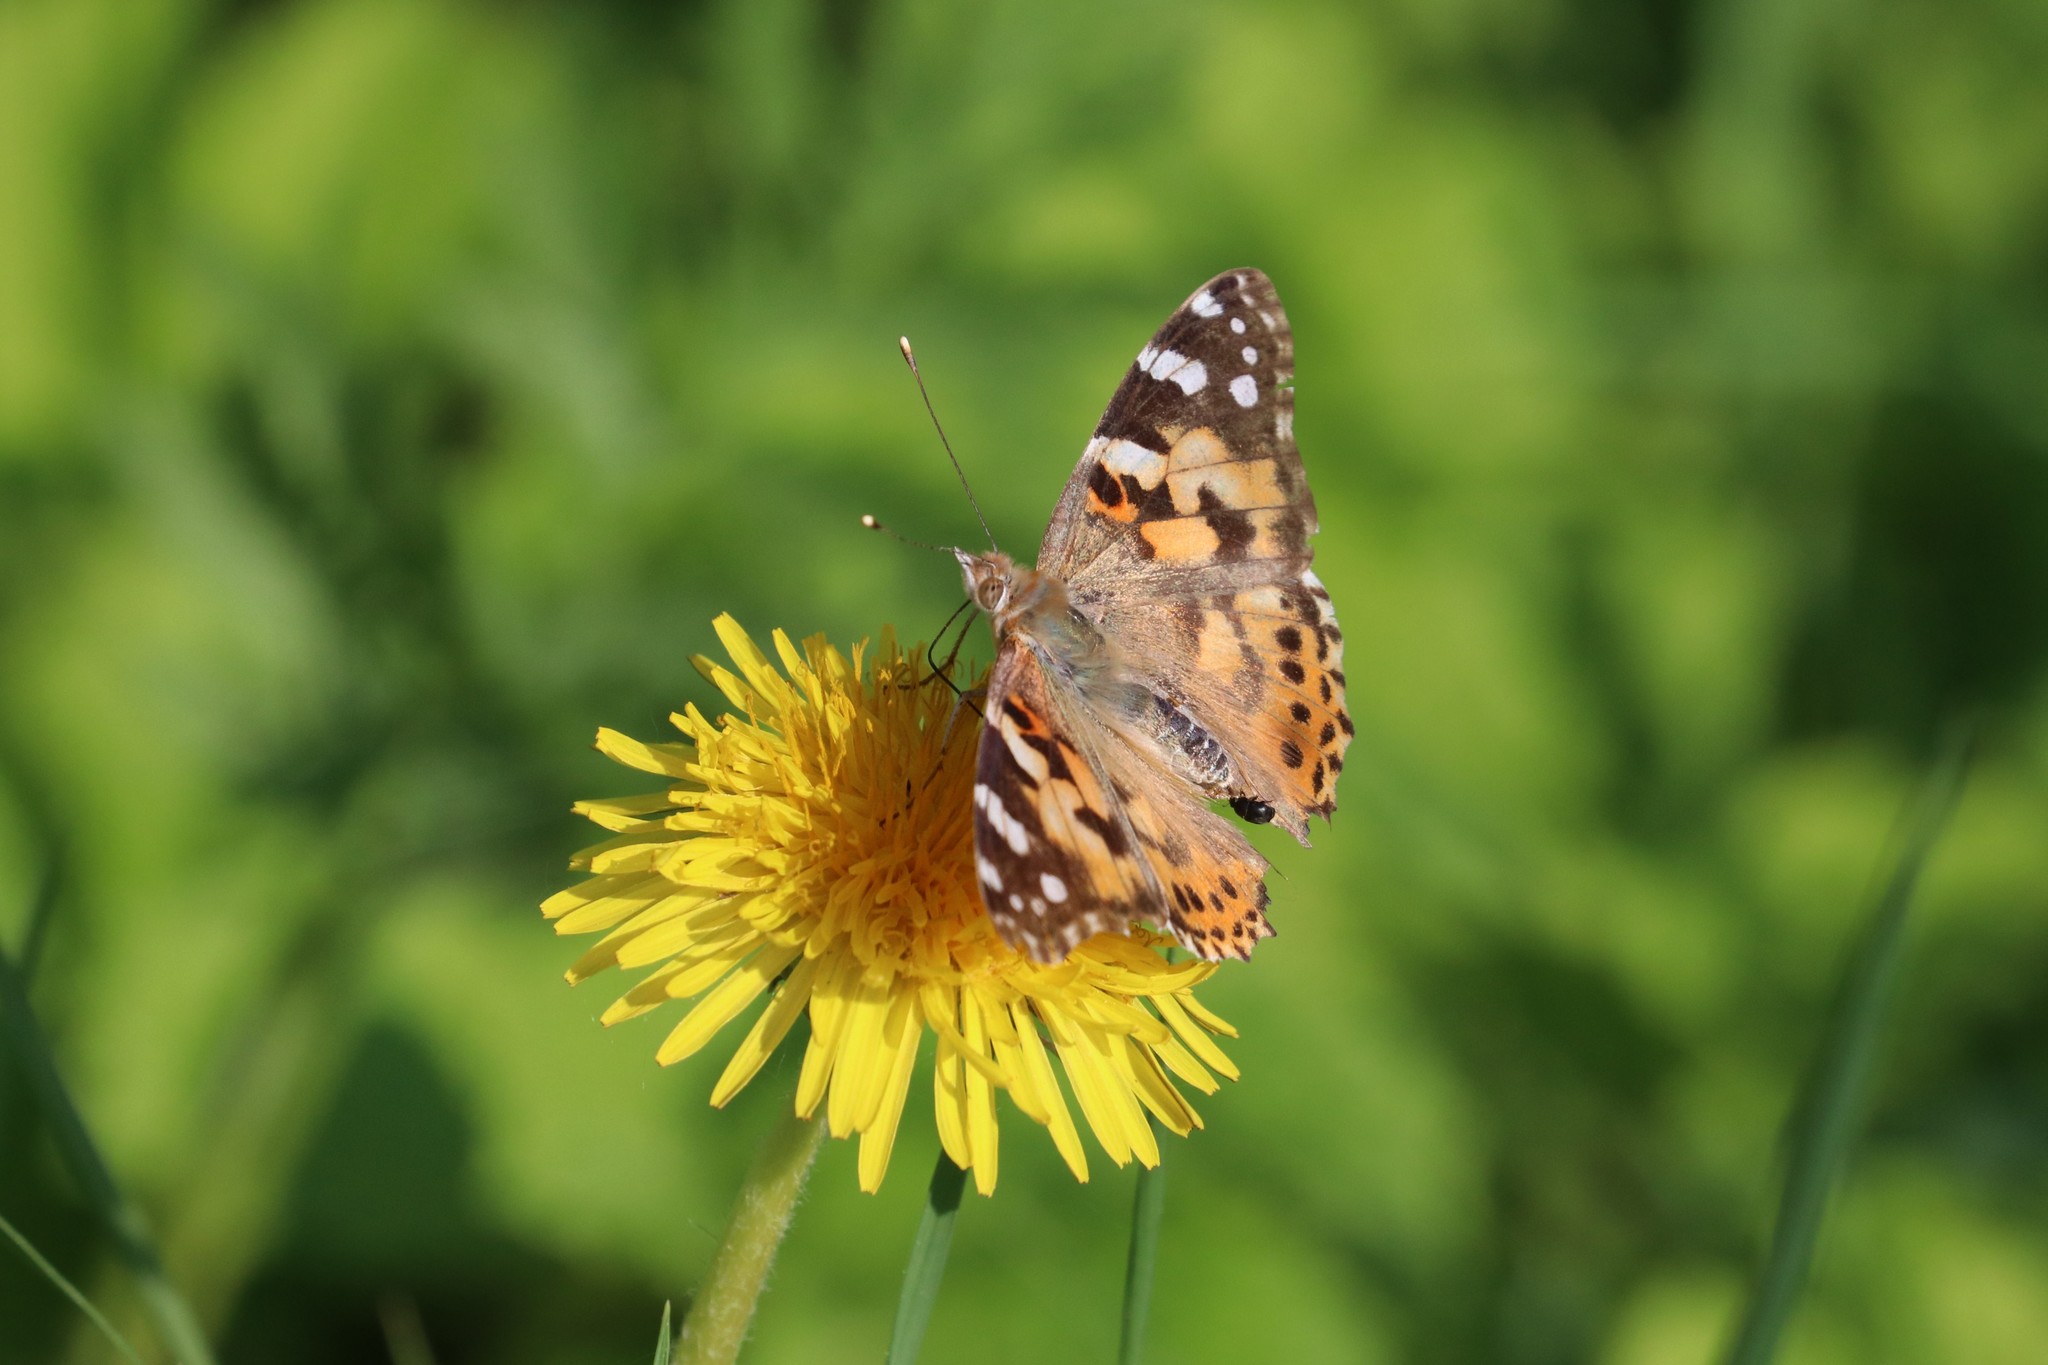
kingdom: Animalia
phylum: Arthropoda
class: Insecta
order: Lepidoptera
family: Nymphalidae
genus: Vanessa
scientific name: Vanessa cardui
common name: Painted lady
